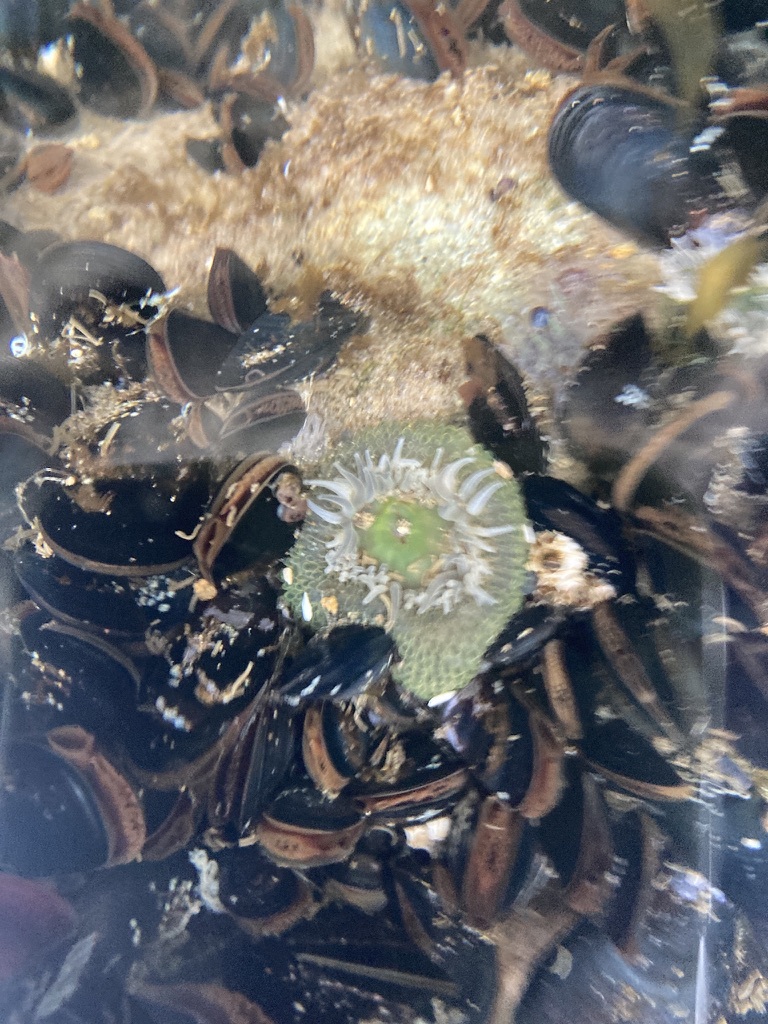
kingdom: Animalia
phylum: Cnidaria
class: Anthozoa
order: Actiniaria
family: Actiniidae
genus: Anthopleura
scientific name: Anthopleura xanthogrammica
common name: Giant green anemone
